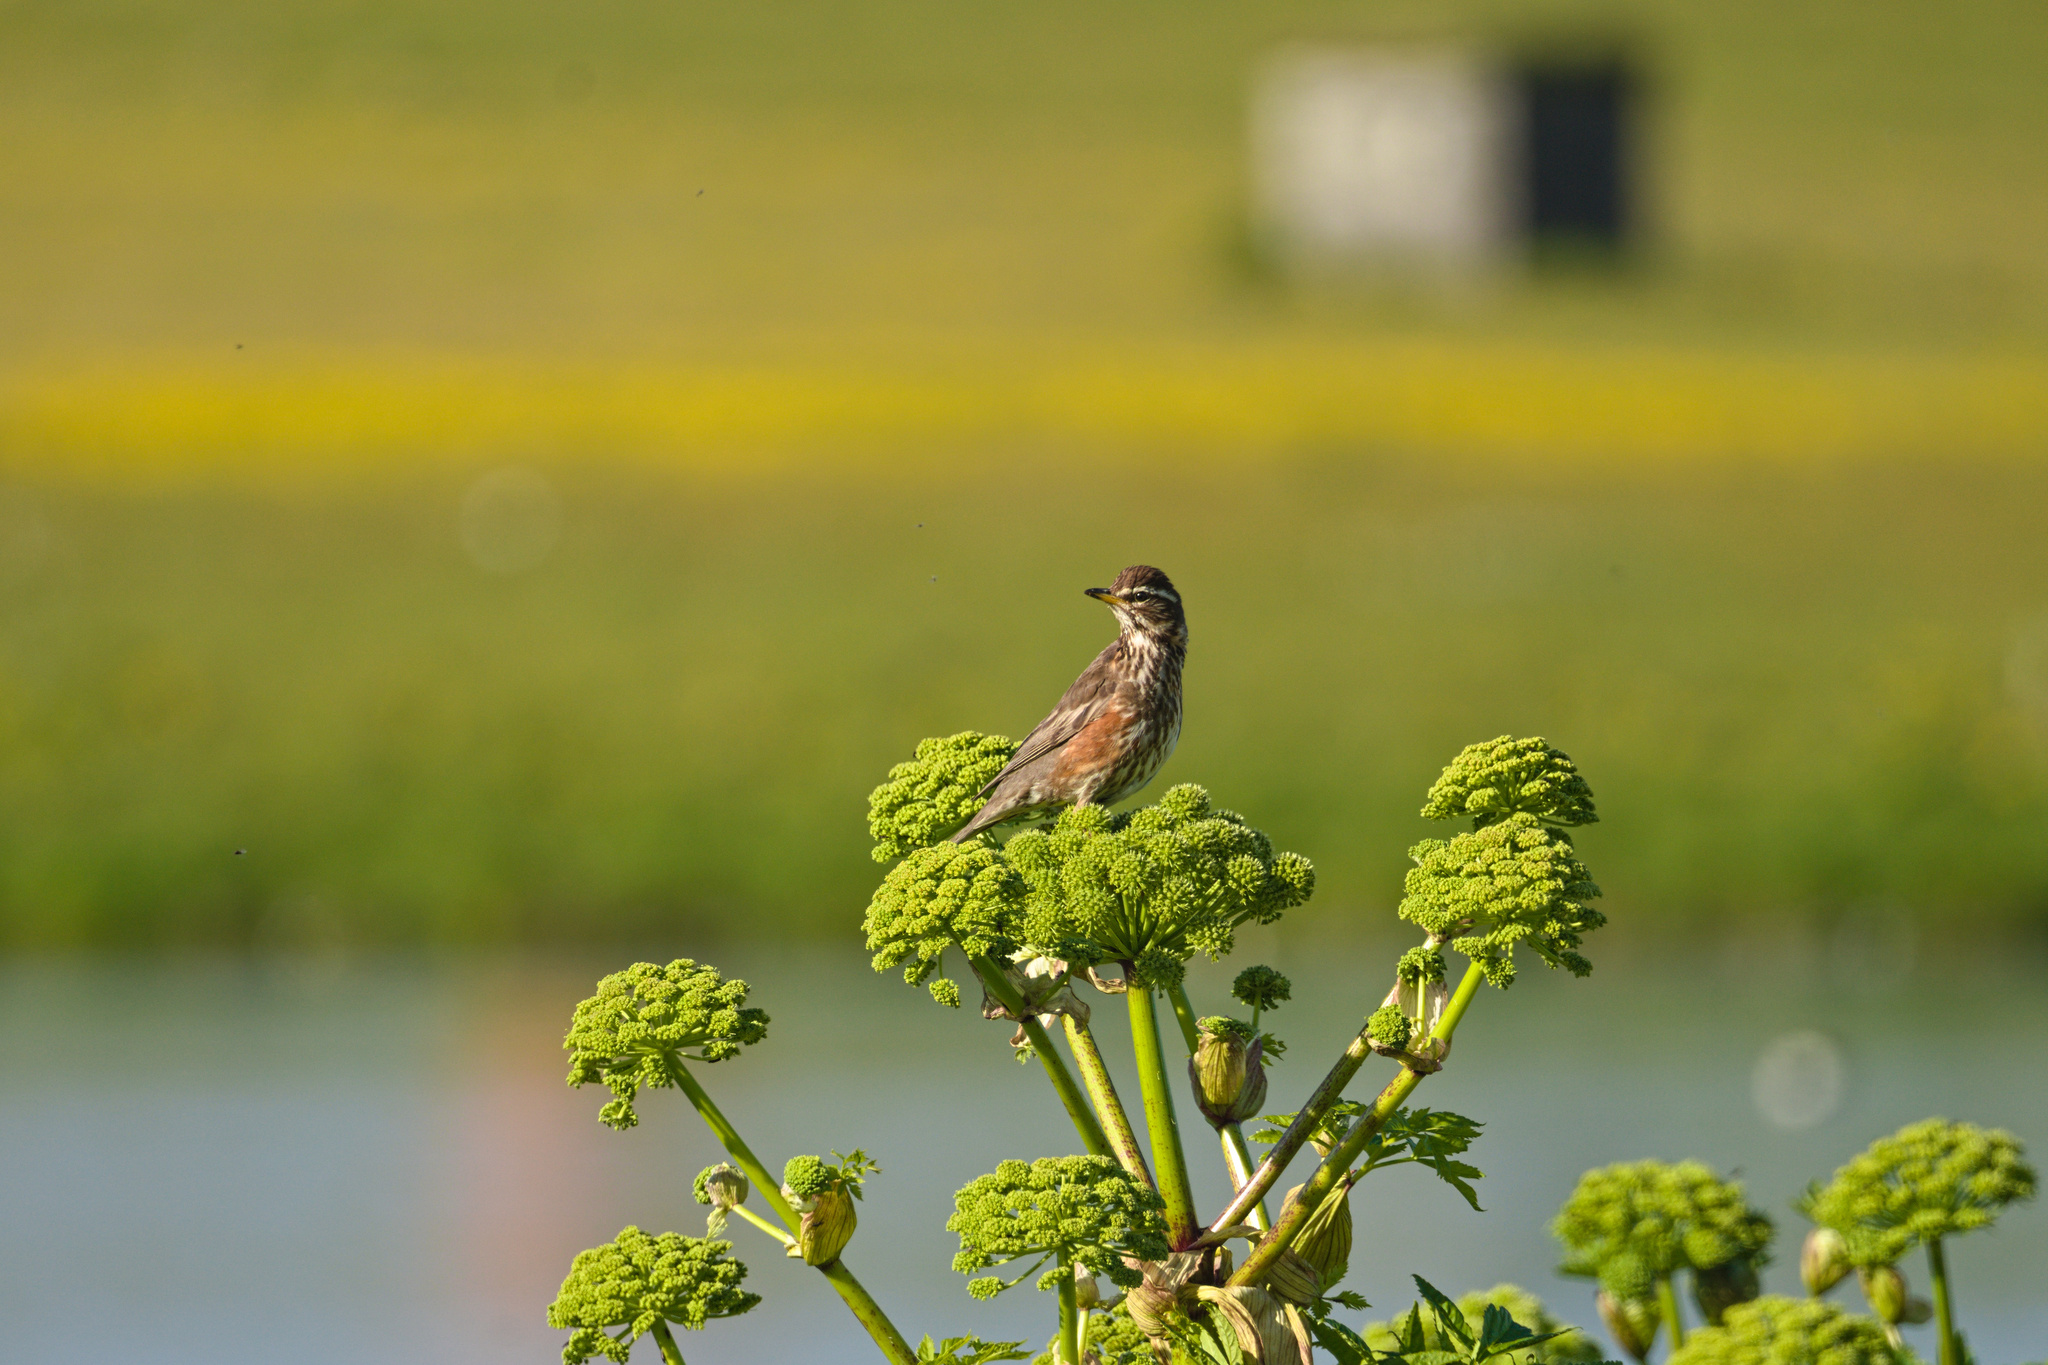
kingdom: Animalia
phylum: Chordata
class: Aves
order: Passeriformes
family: Turdidae
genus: Turdus
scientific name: Turdus iliacus
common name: Redwing
